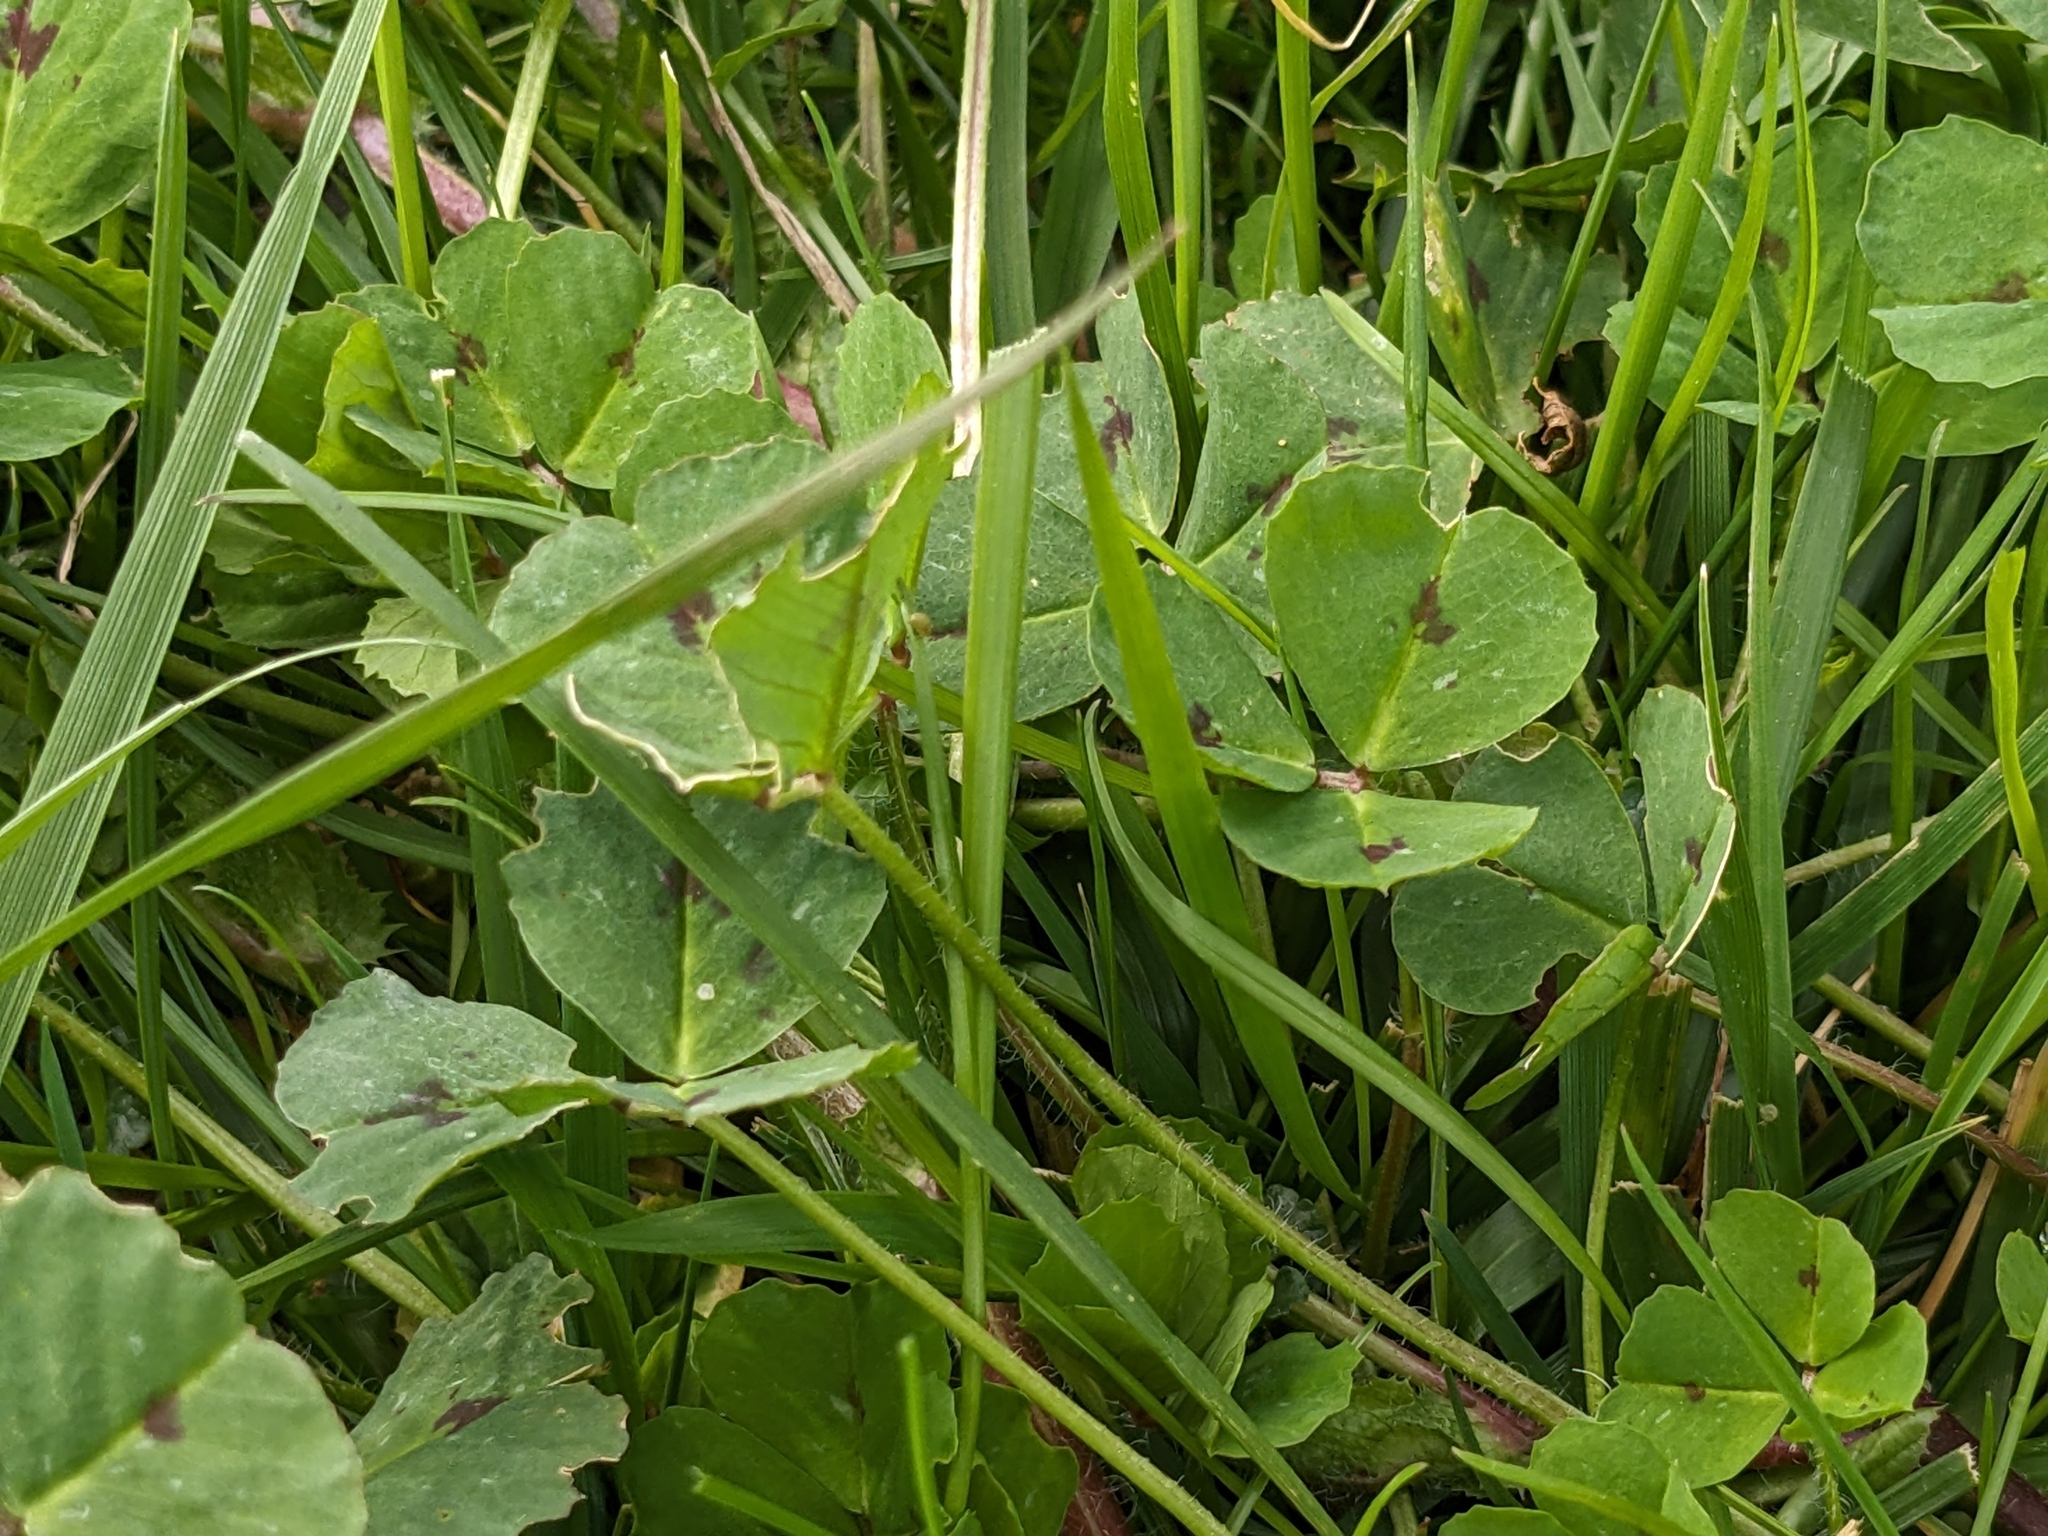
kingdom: Plantae
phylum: Tracheophyta
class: Magnoliopsida
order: Fabales
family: Fabaceae
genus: Medicago
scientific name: Medicago arabica
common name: Spotted medick
